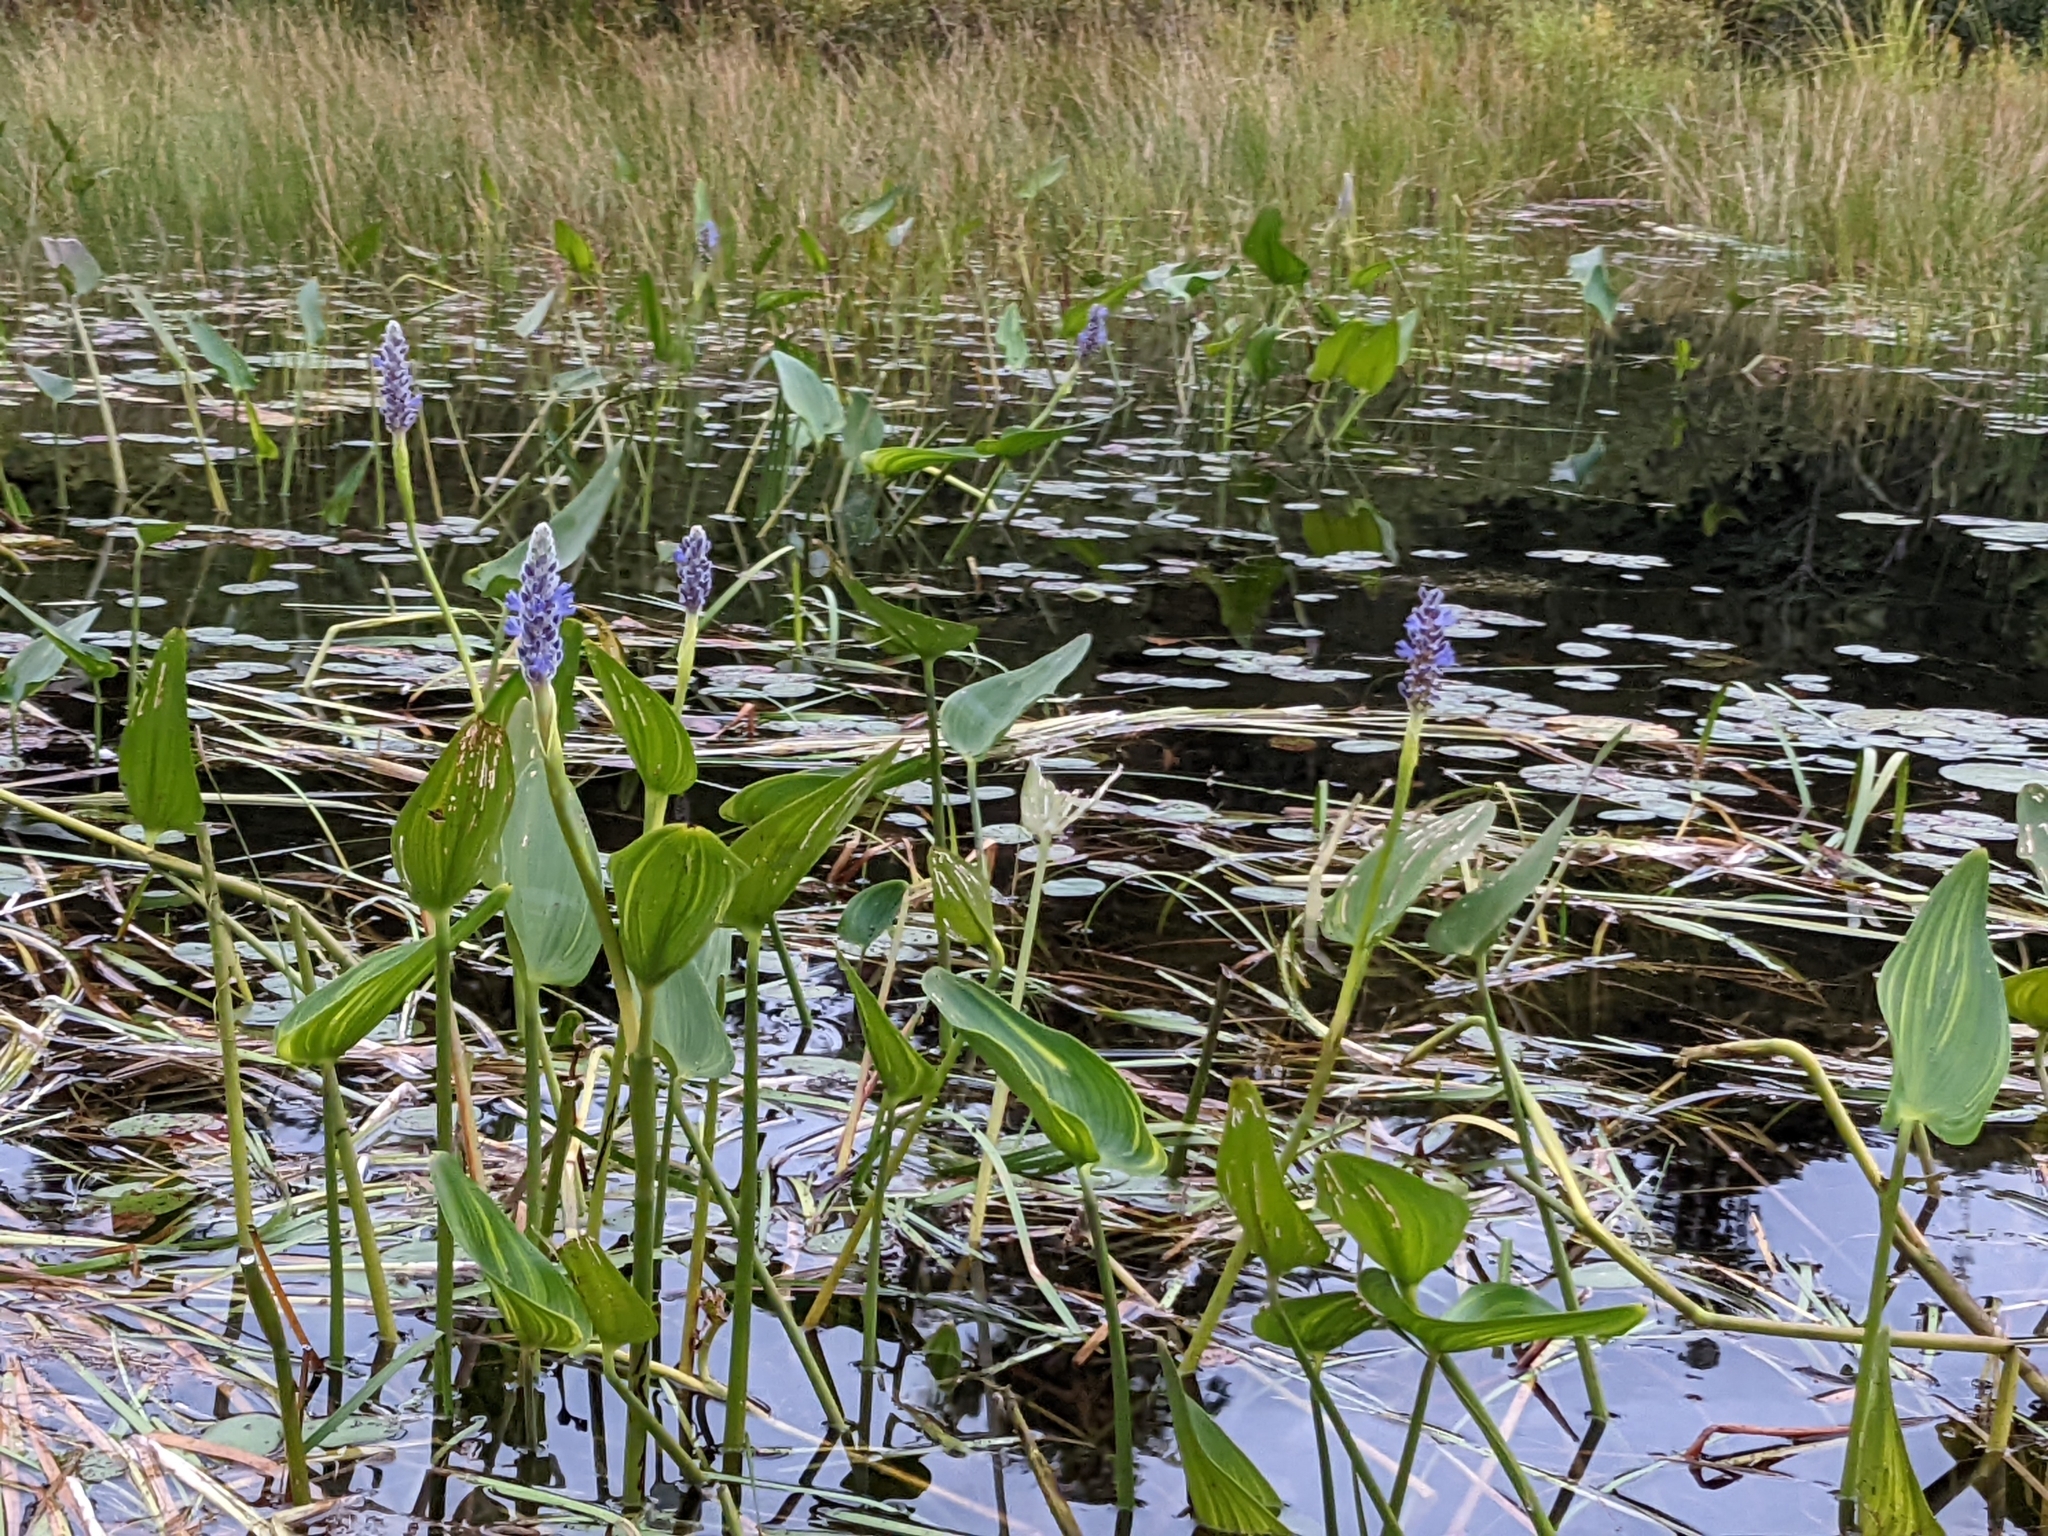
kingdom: Plantae
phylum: Tracheophyta
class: Liliopsida
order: Commelinales
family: Pontederiaceae
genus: Pontederia
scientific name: Pontederia cordata
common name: Pickerelweed
